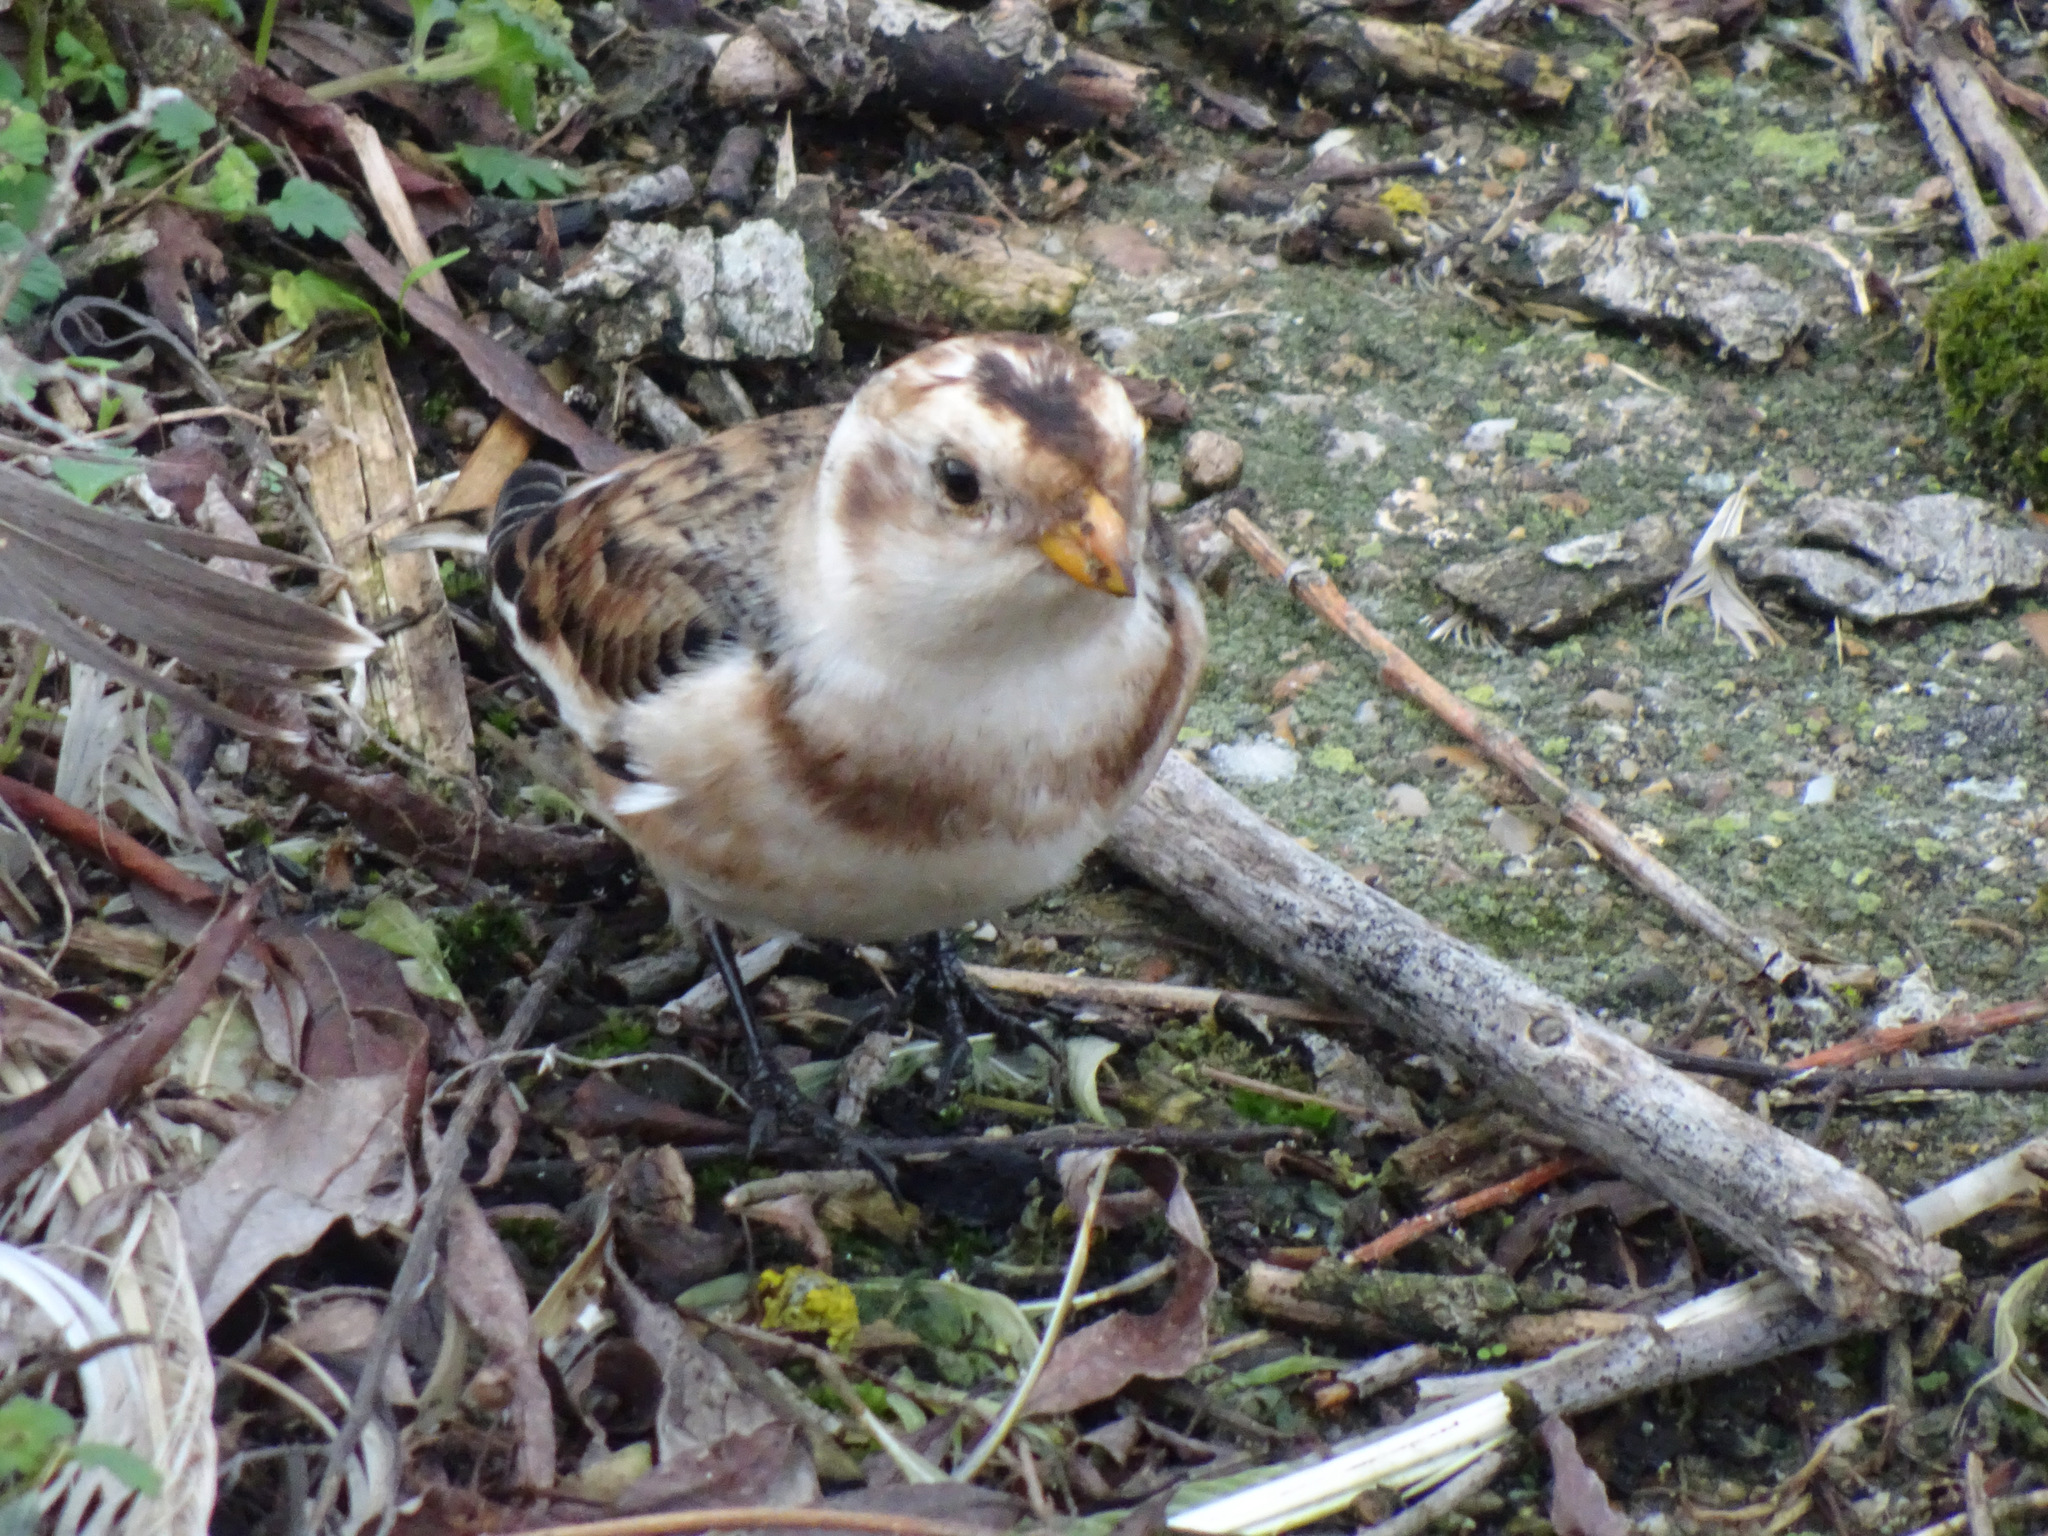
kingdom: Animalia
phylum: Chordata
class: Aves
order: Passeriformes
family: Calcariidae
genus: Plectrophenax
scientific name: Plectrophenax nivalis
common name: Snow bunting
